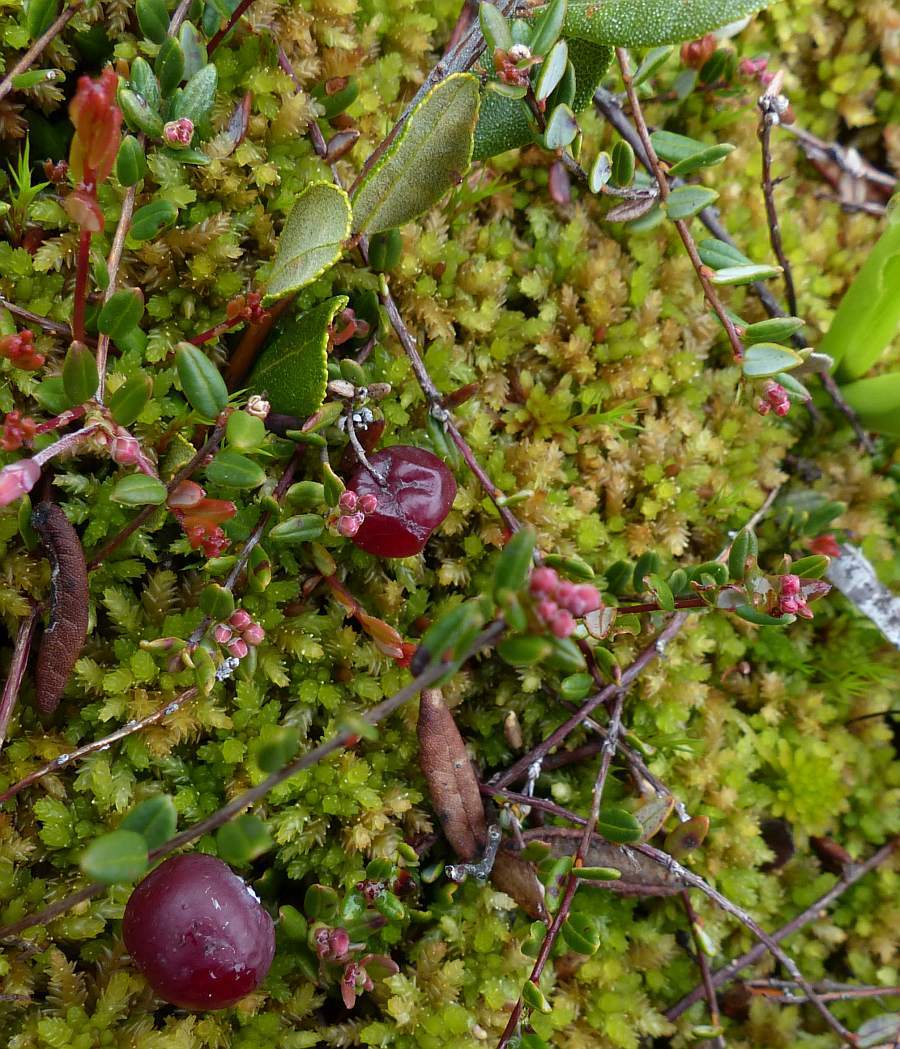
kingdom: Plantae
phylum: Tracheophyta
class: Magnoliopsida
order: Ericales
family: Ericaceae
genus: Vaccinium
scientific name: Vaccinium macrocarpon
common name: American cranberry
